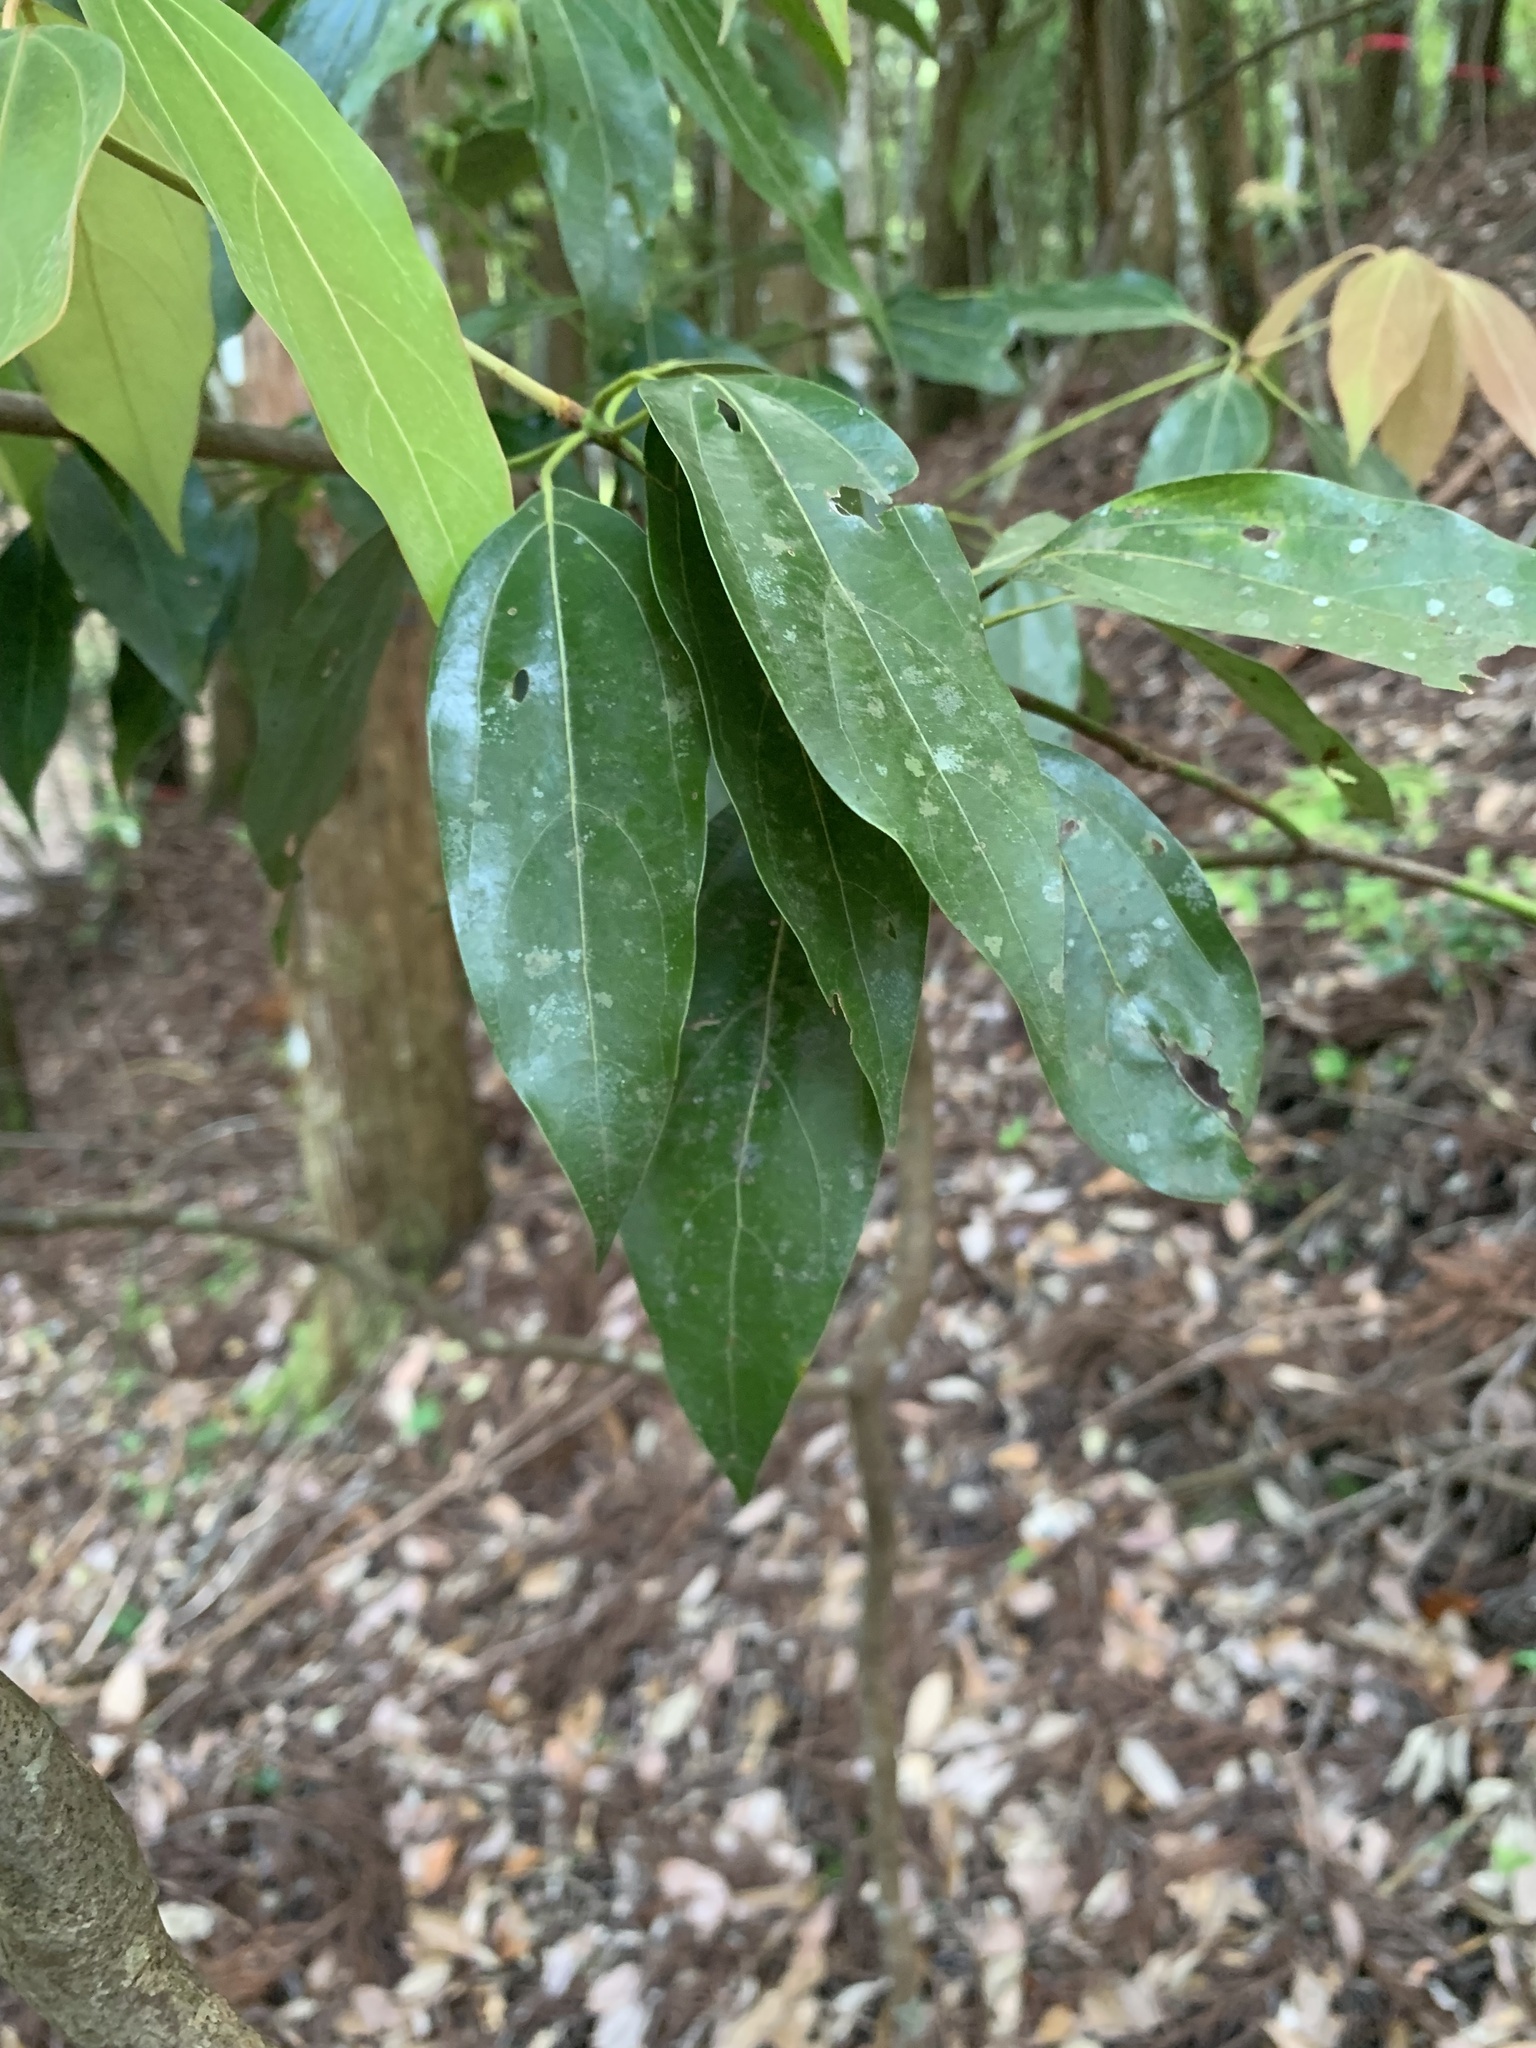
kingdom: Plantae
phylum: Tracheophyta
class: Magnoliopsida
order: Laurales
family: Lauraceae
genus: Neolitsea
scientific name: Neolitsea sericea
